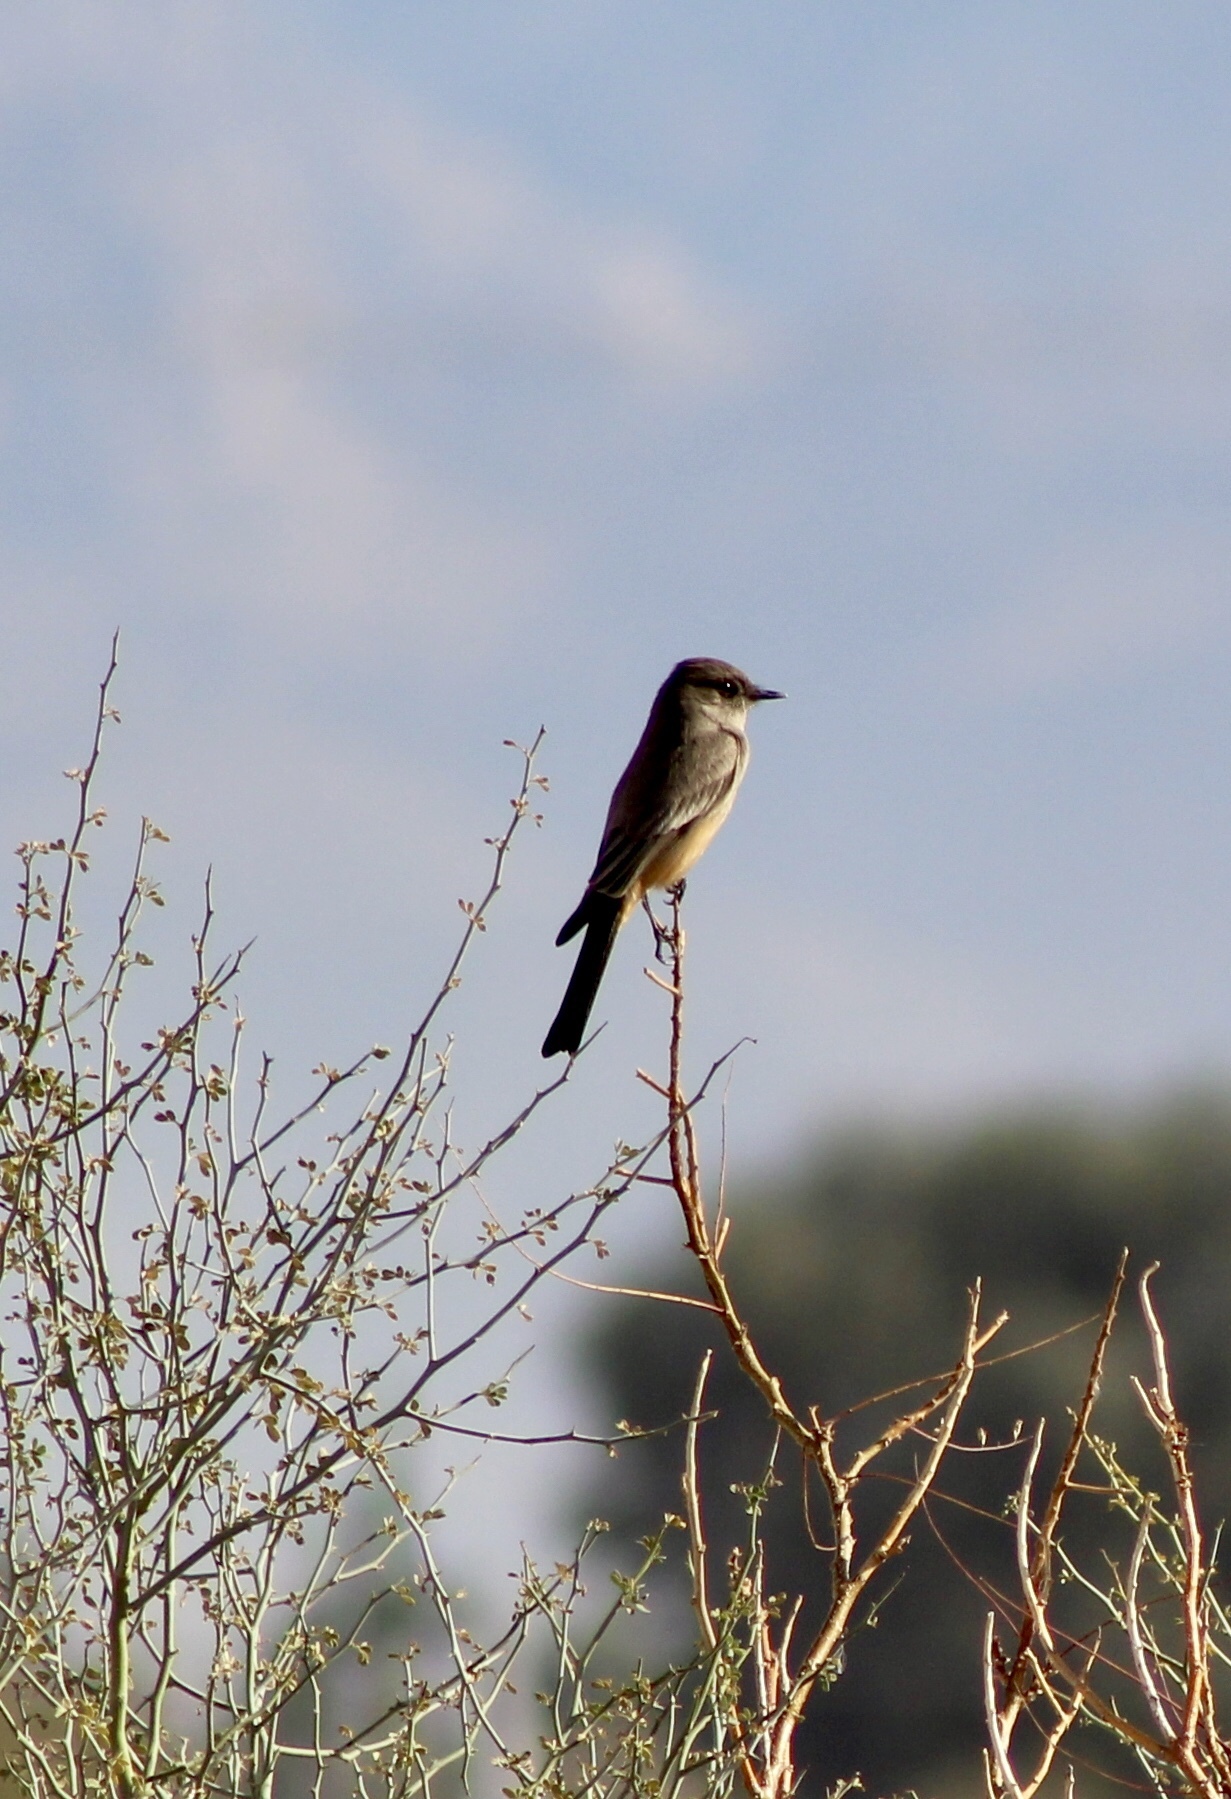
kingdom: Animalia
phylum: Chordata
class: Aves
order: Passeriformes
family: Tyrannidae
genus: Sayornis
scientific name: Sayornis saya
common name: Say's phoebe
